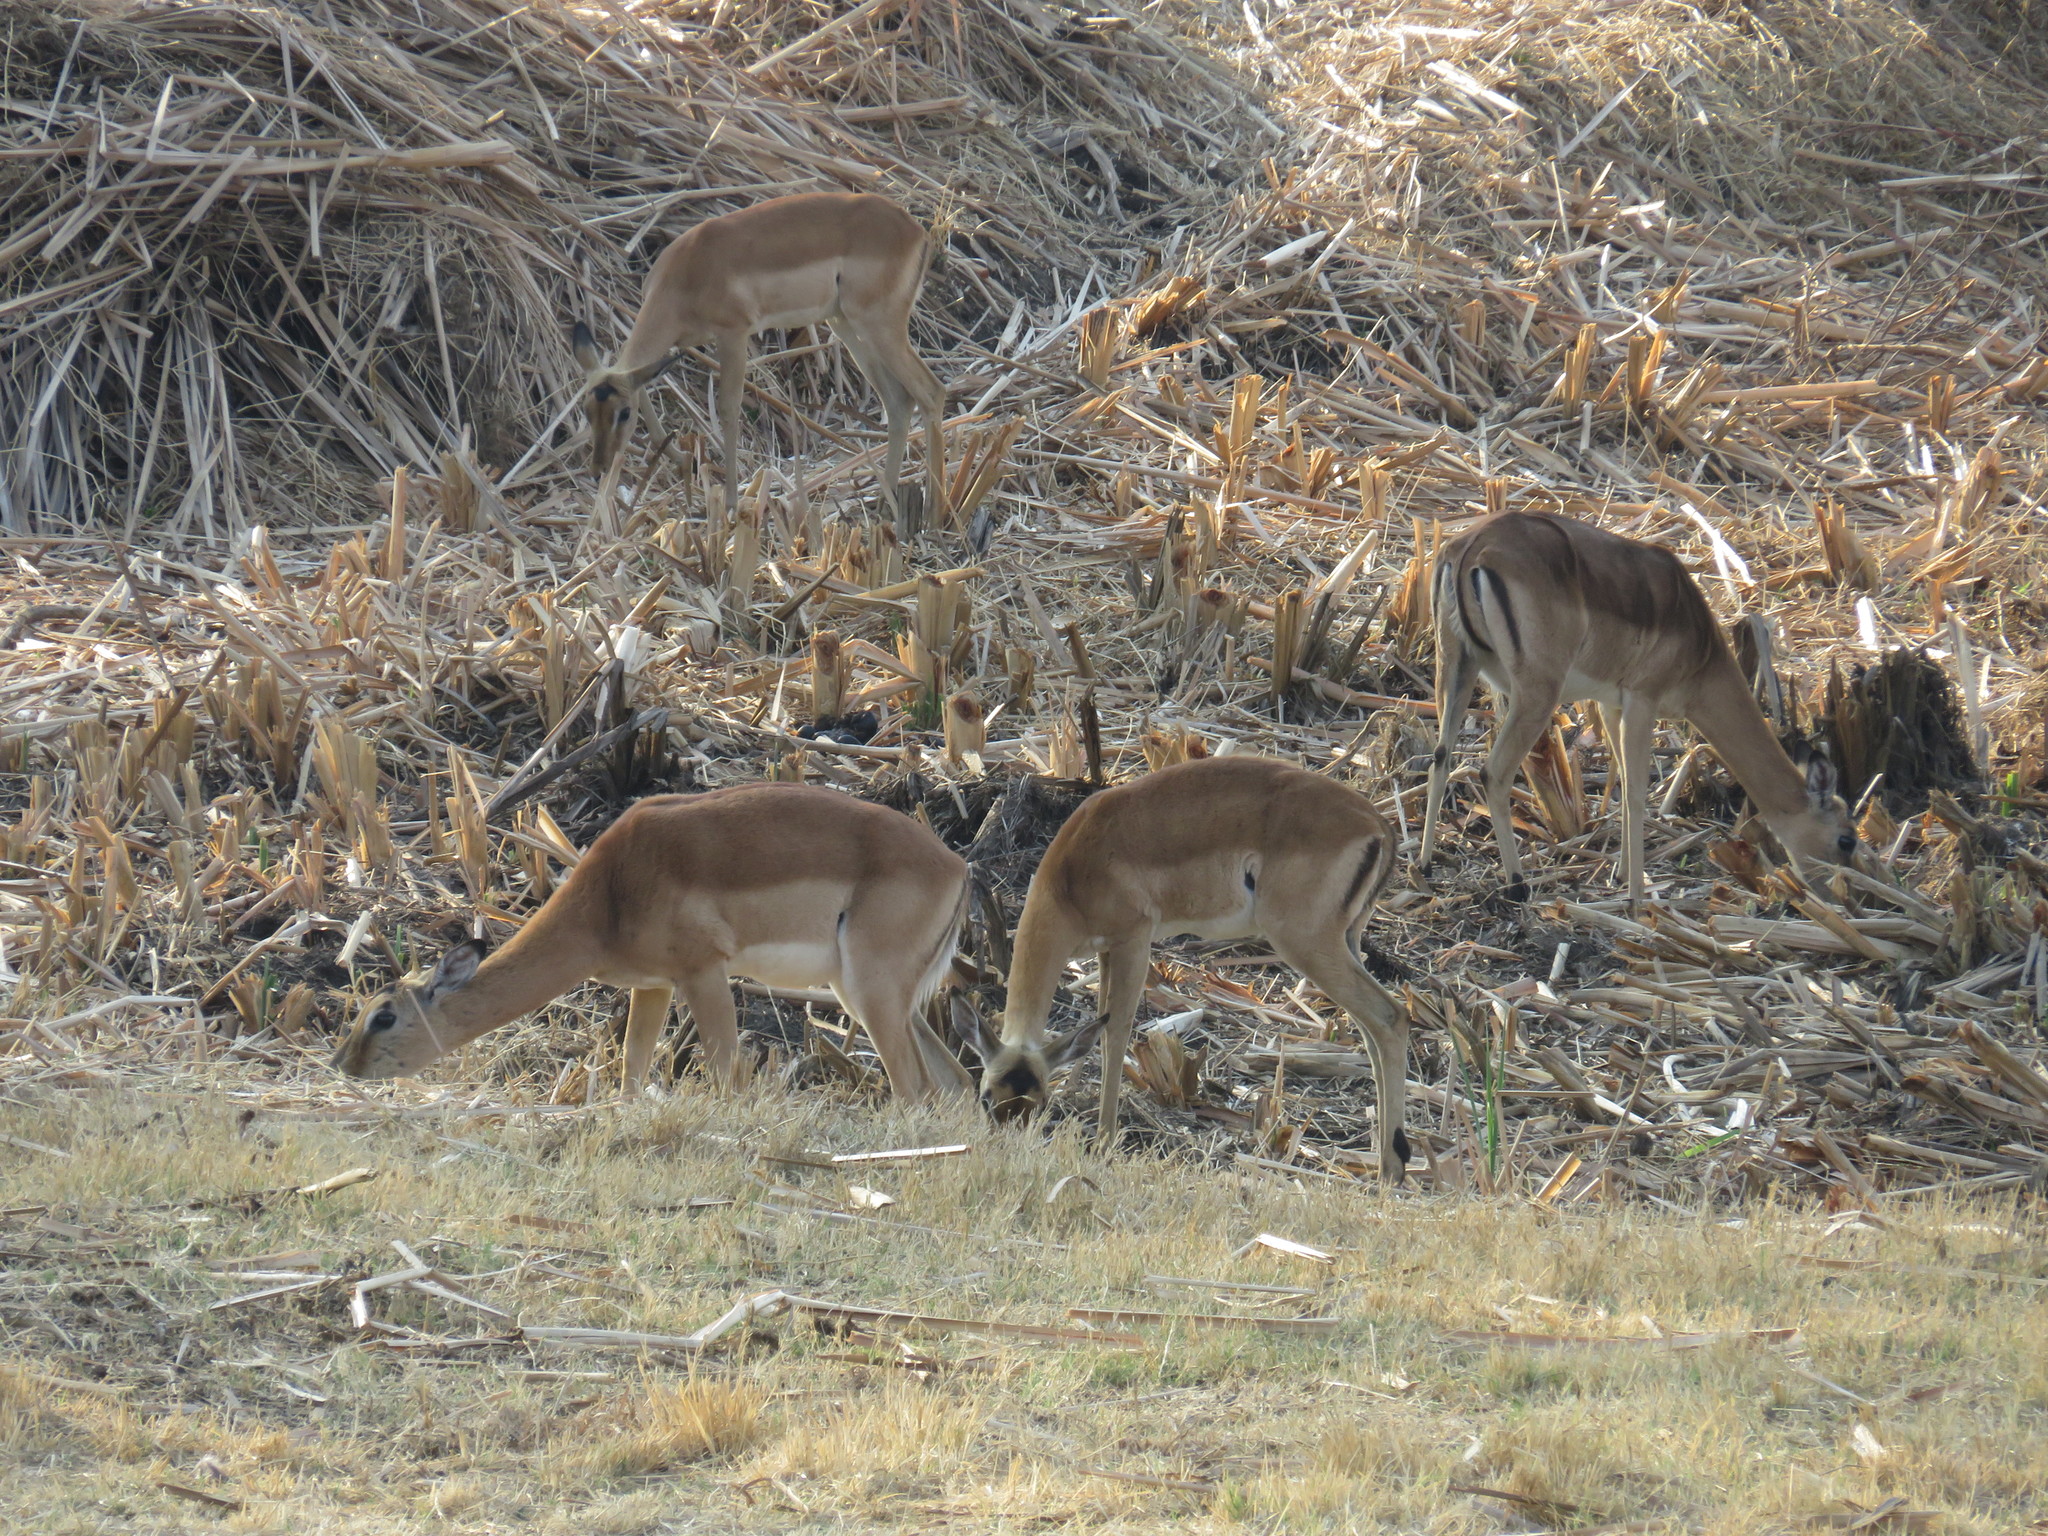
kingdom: Animalia
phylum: Chordata
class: Mammalia
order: Artiodactyla
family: Bovidae
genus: Aepyceros
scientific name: Aepyceros melampus
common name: Impala
